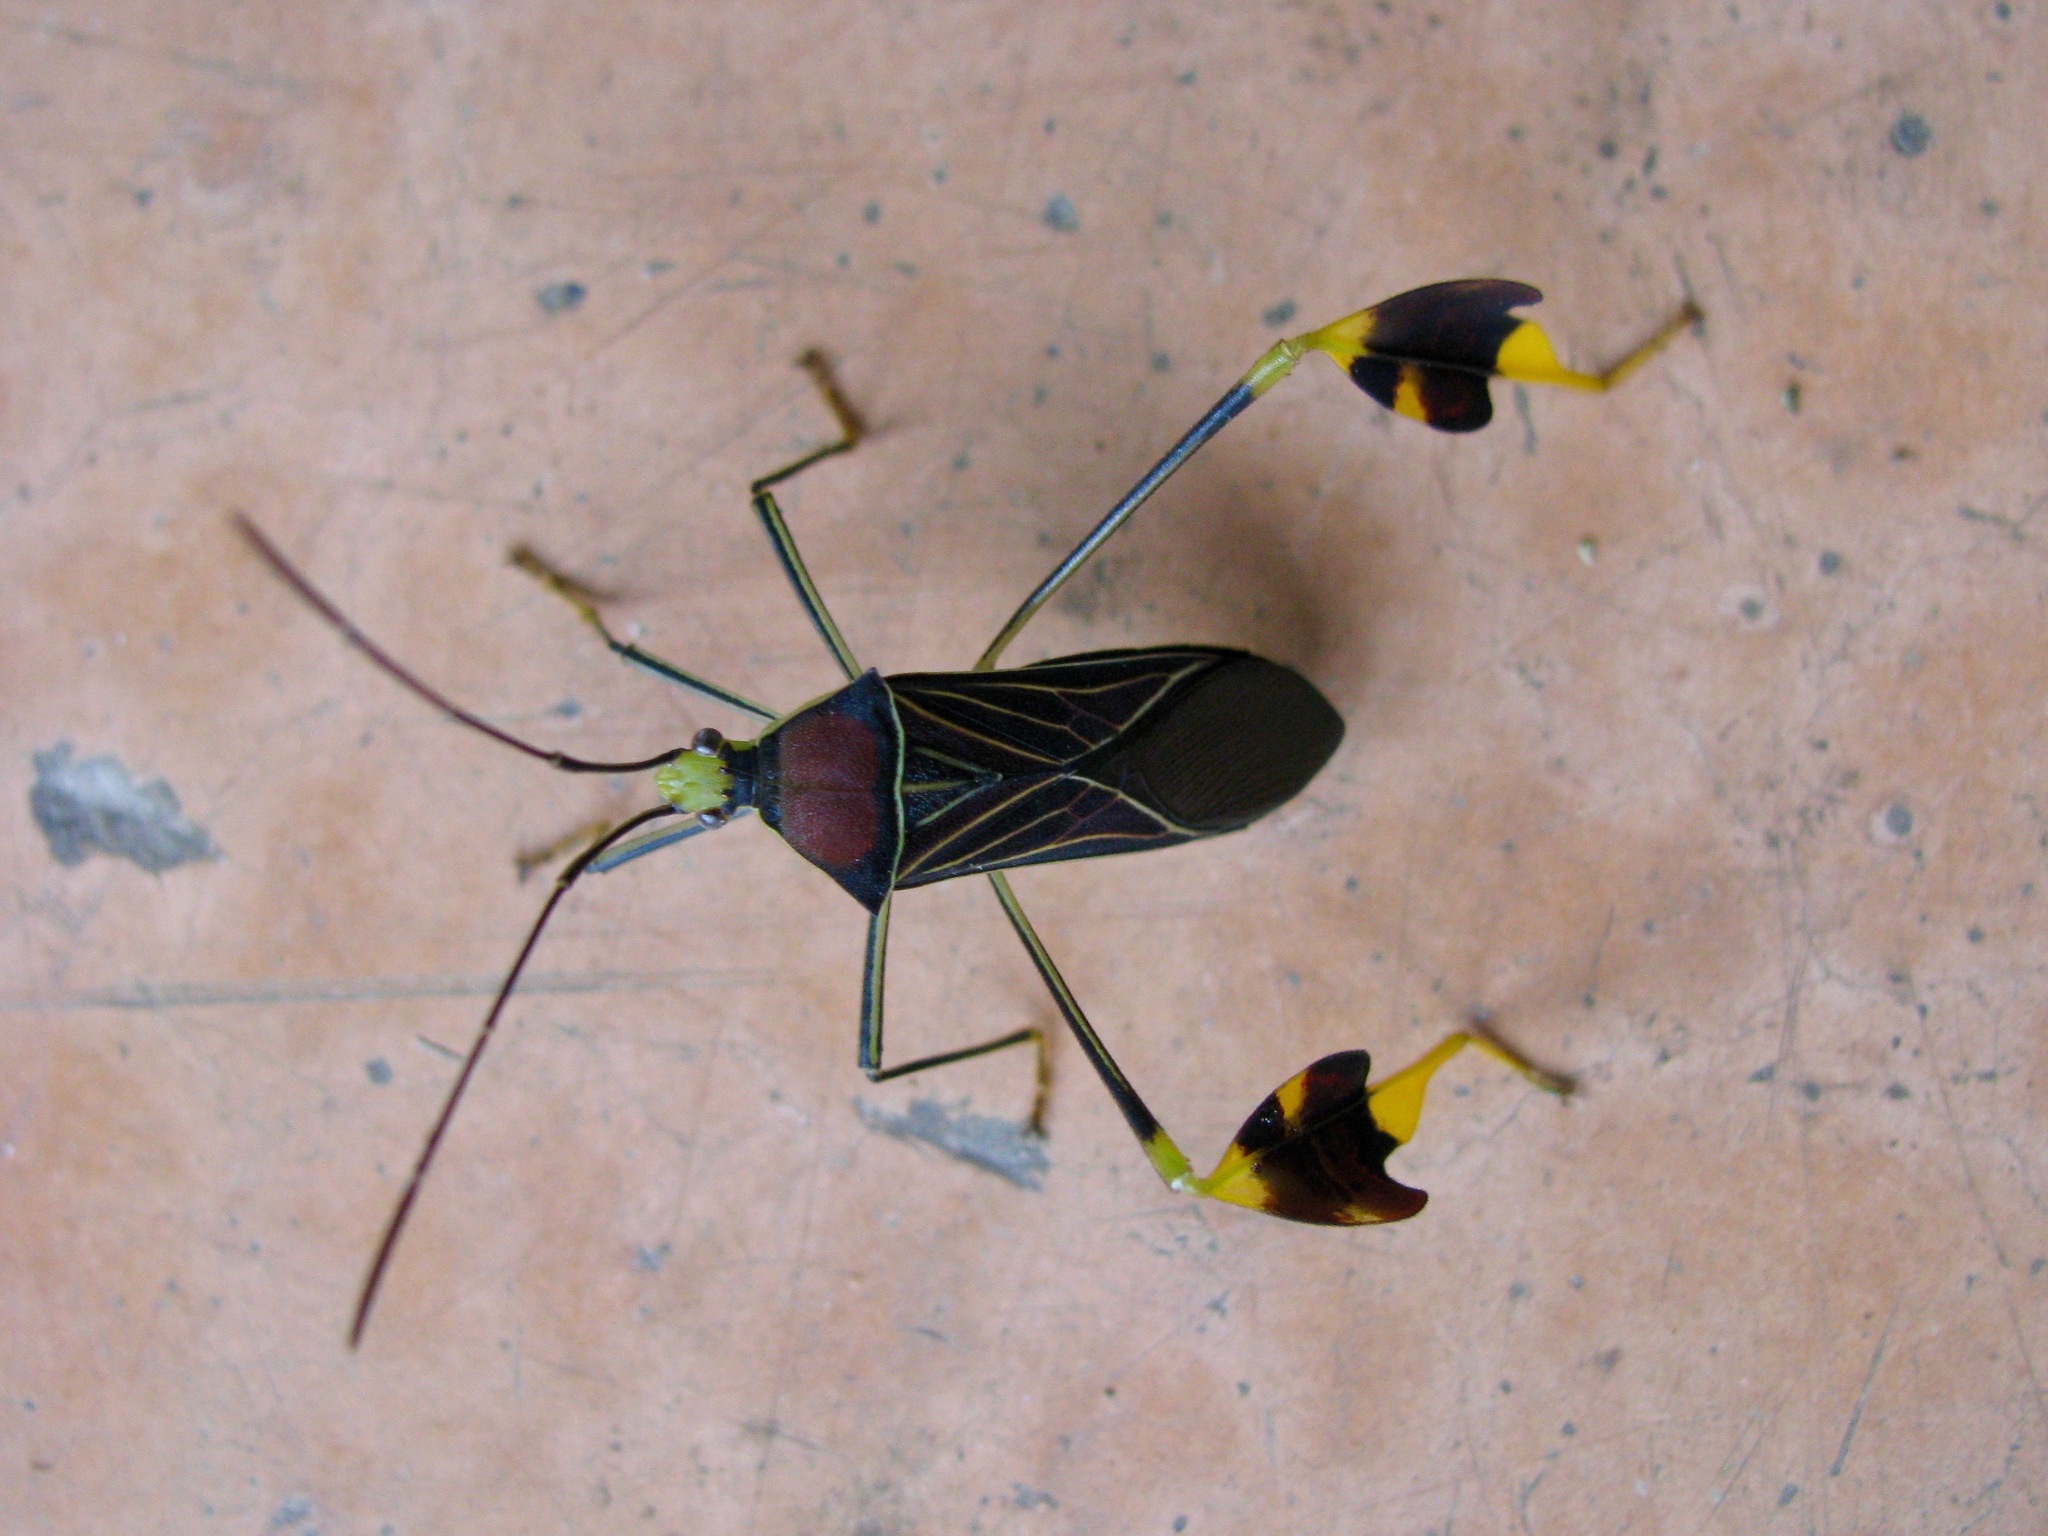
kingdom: Animalia
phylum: Arthropoda
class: Insecta
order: Hemiptera
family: Coreidae
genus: Anisoscelis
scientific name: Anisoscelis gradadius
